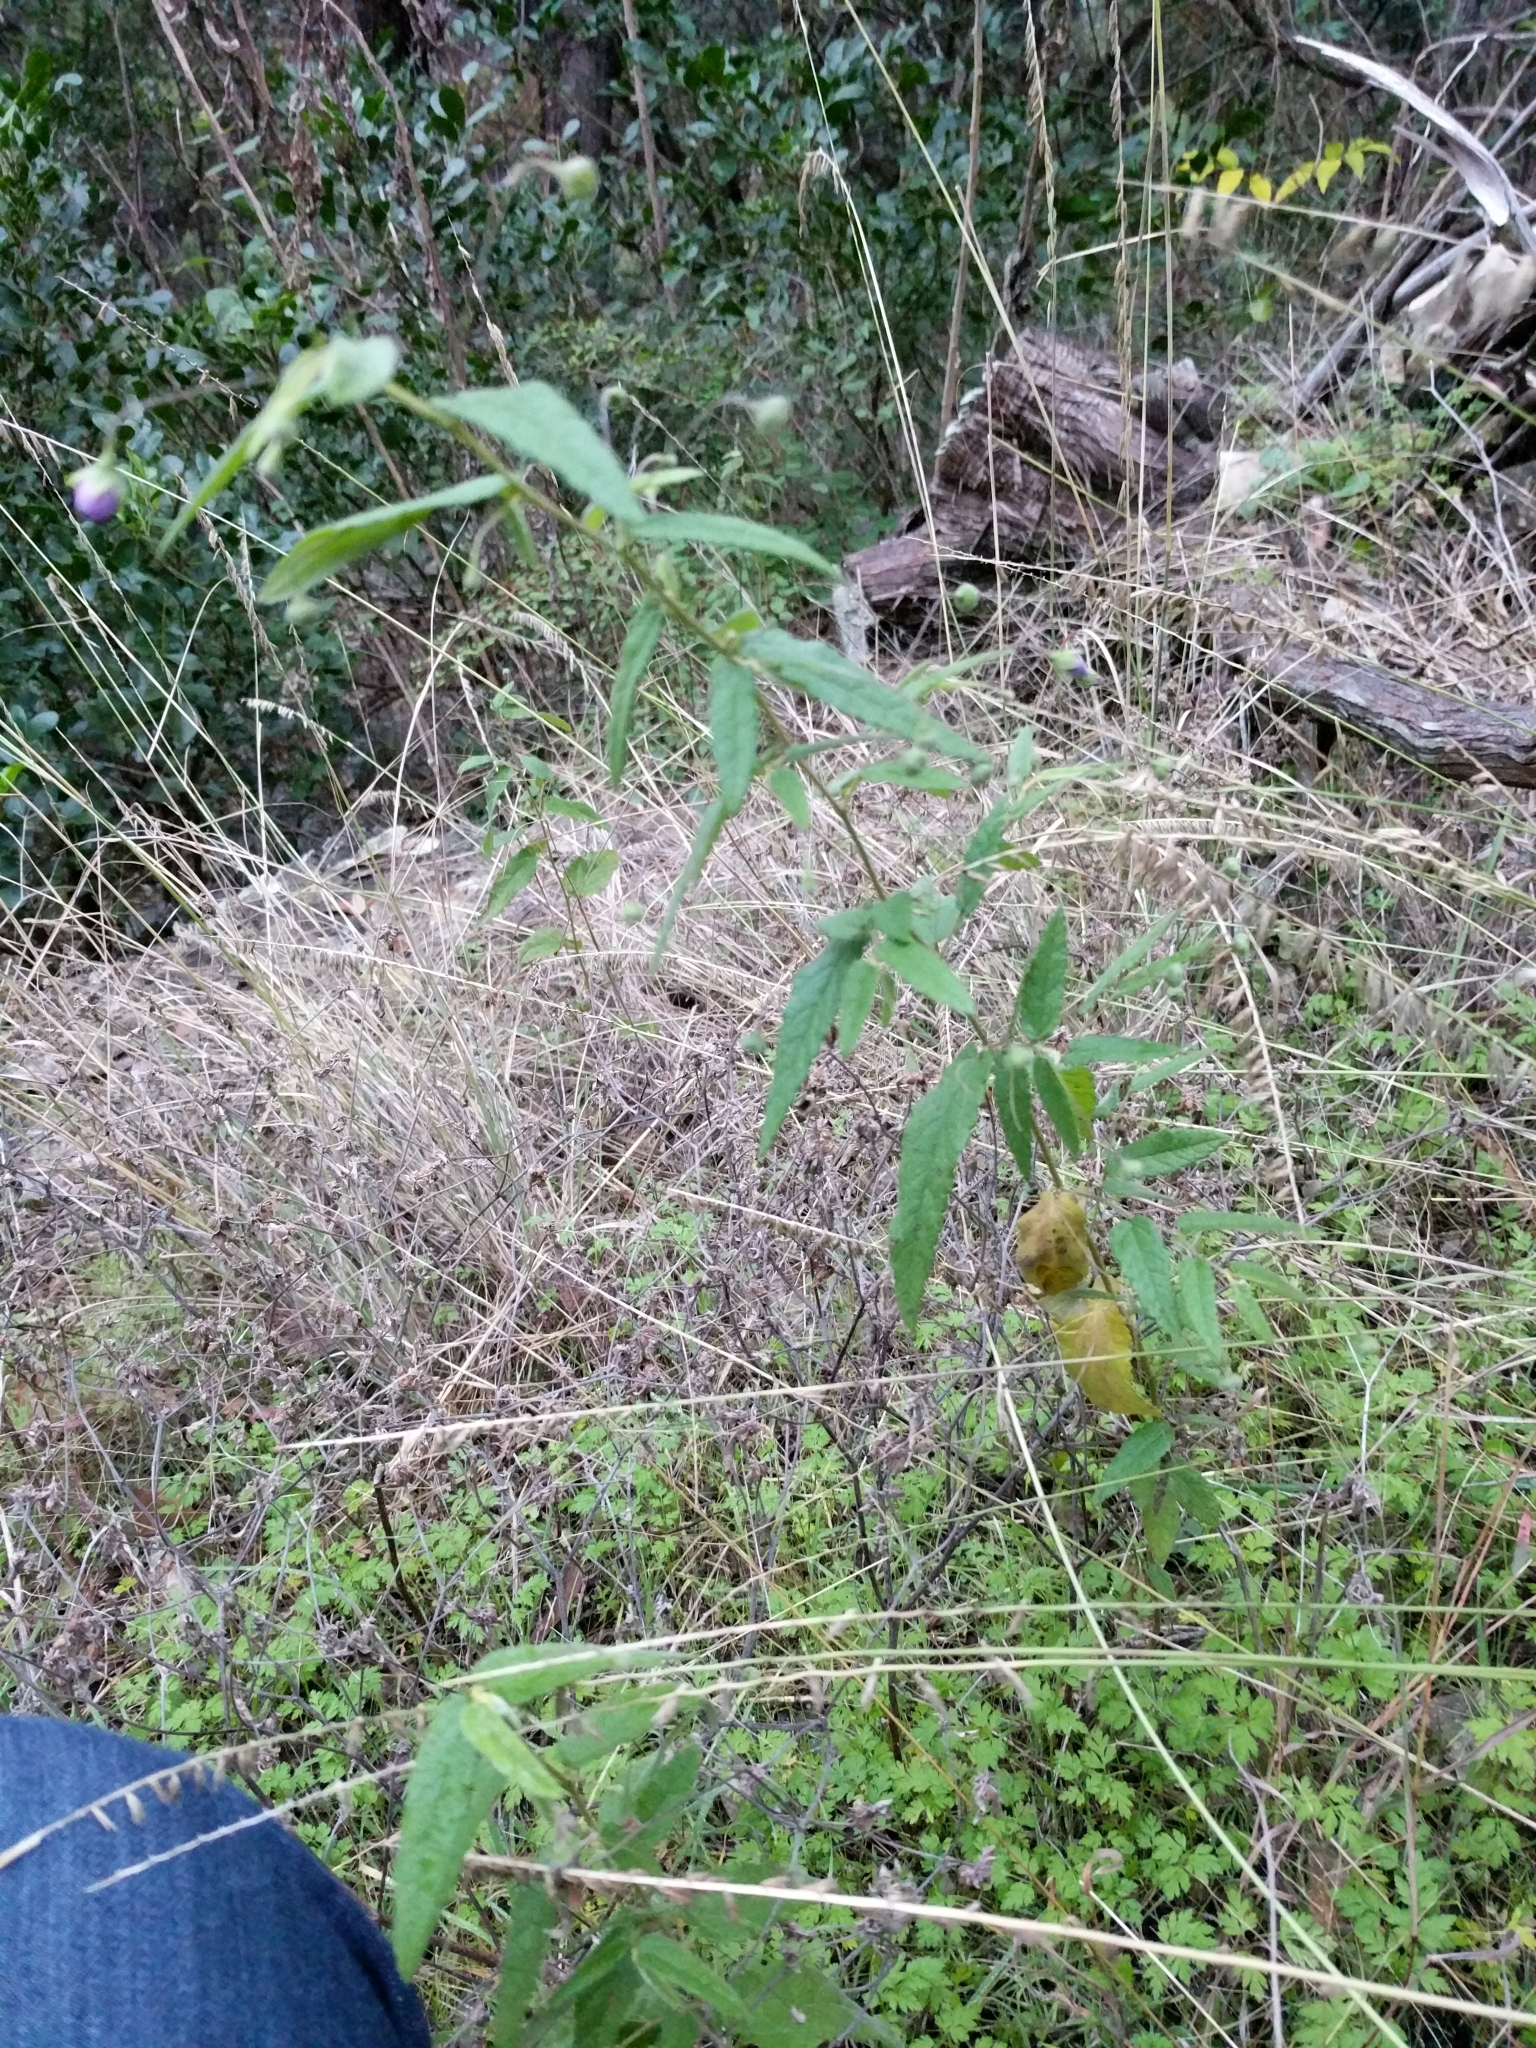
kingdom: Plantae
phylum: Tracheophyta
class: Magnoliopsida
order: Malvales
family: Malvaceae
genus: Meximalva
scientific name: Meximalva filipes
